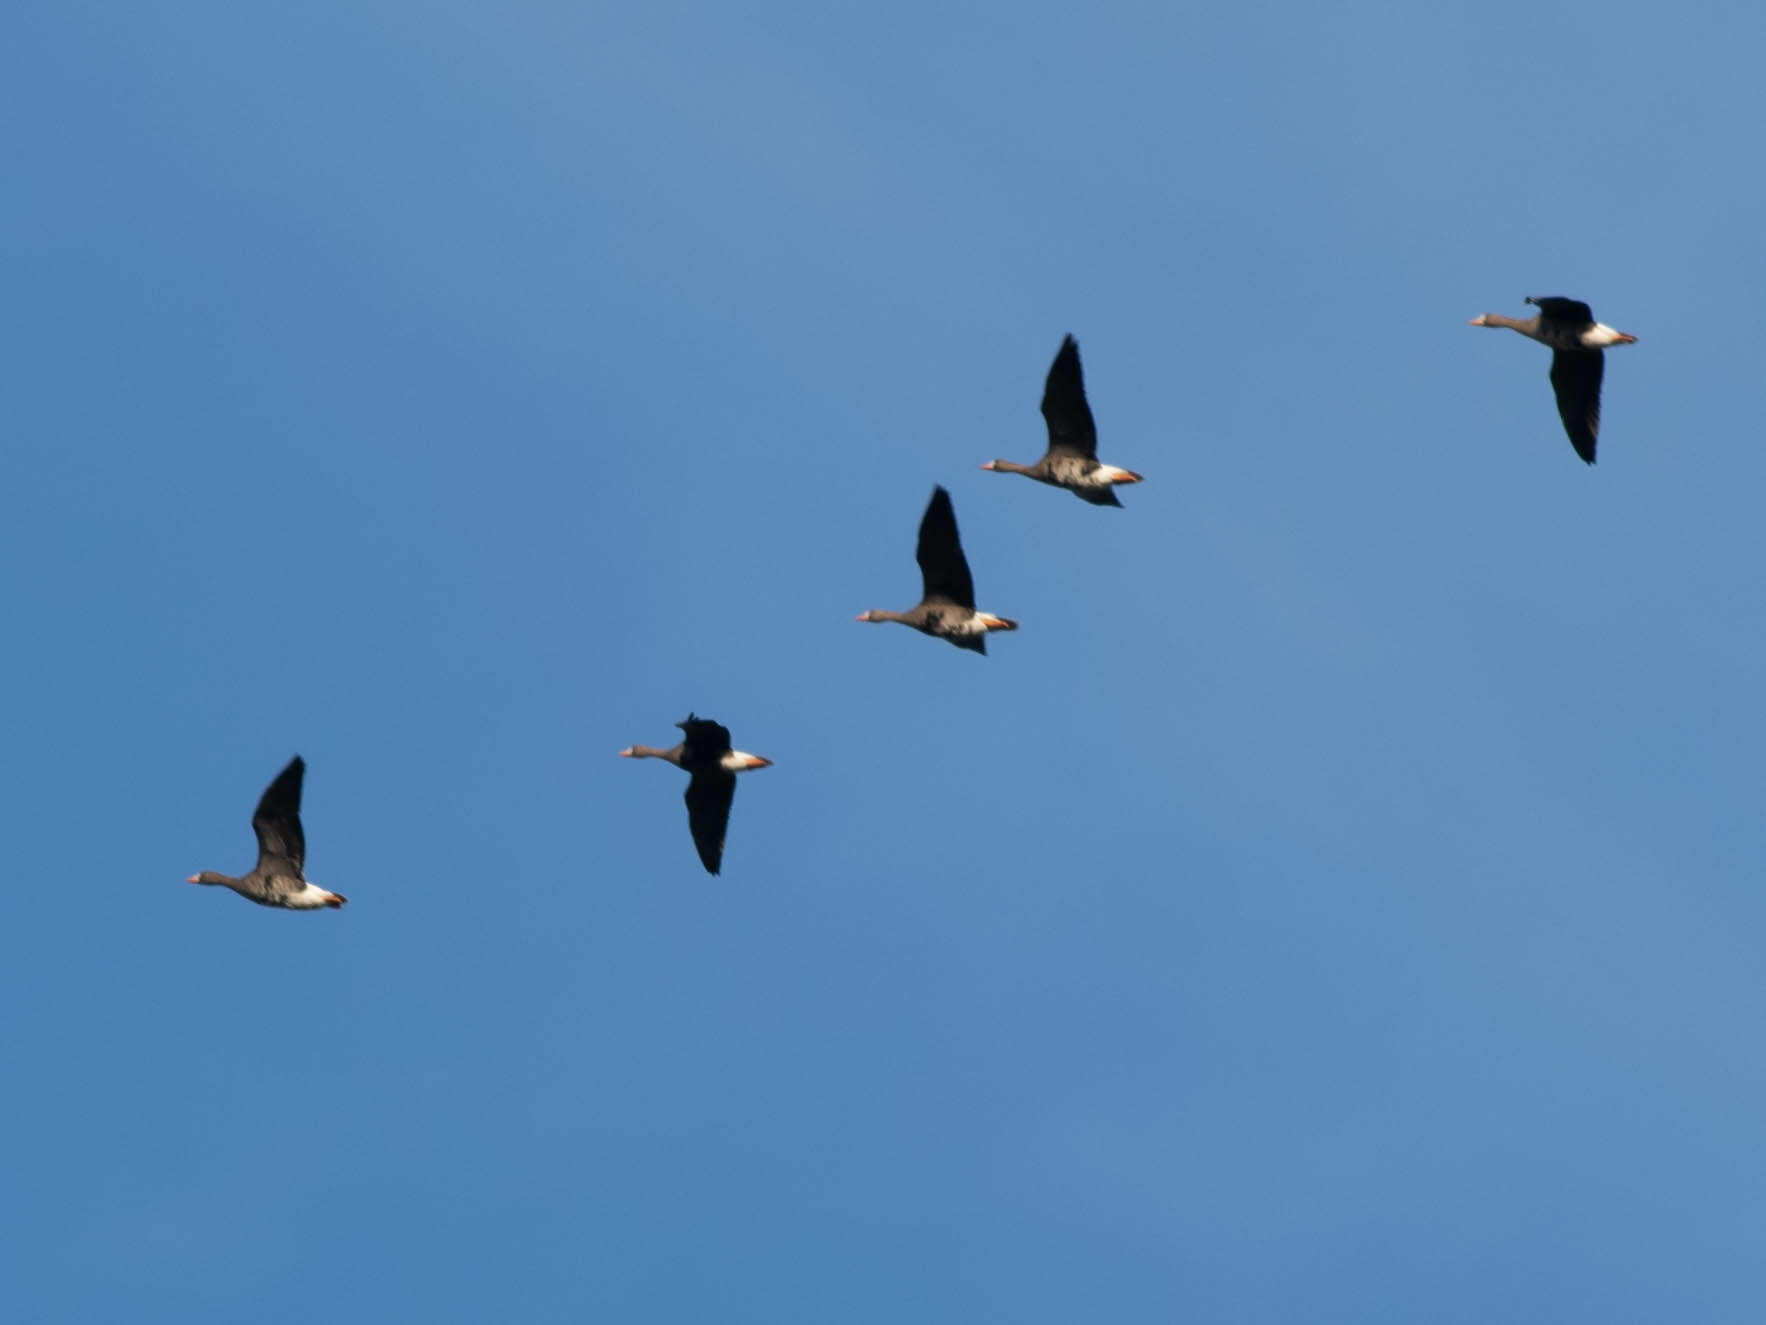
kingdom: Animalia
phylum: Chordata
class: Aves
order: Anseriformes
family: Anatidae
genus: Anser
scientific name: Anser albifrons
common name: Greater white-fronted goose
